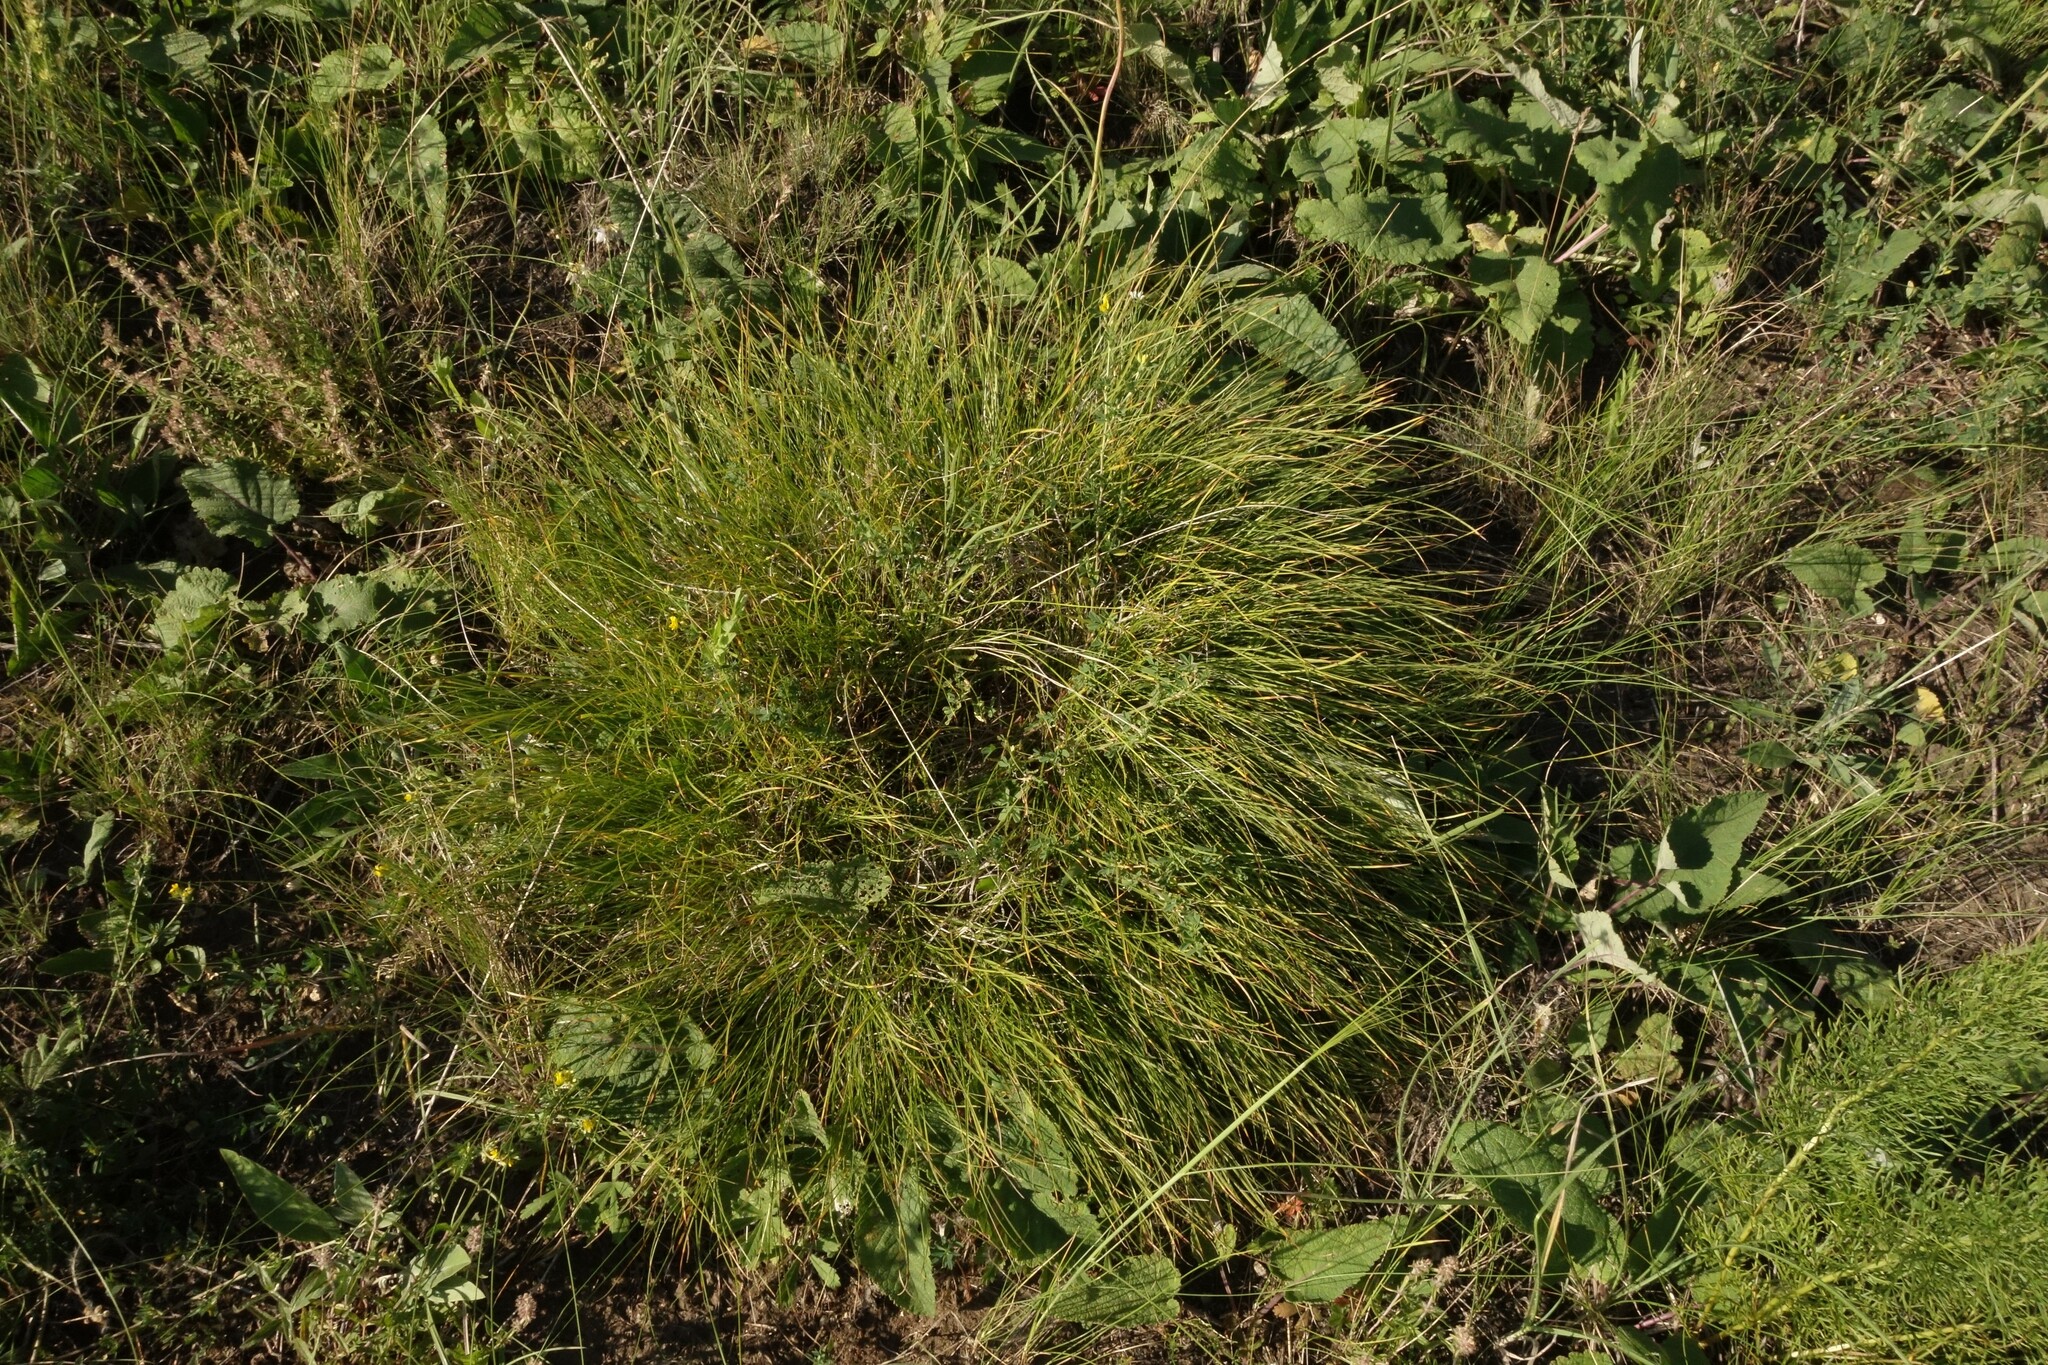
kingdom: Plantae
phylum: Tracheophyta
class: Liliopsida
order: Poales
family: Cyperaceae
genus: Carex
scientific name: Carex humilis
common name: Dwarf sedge
